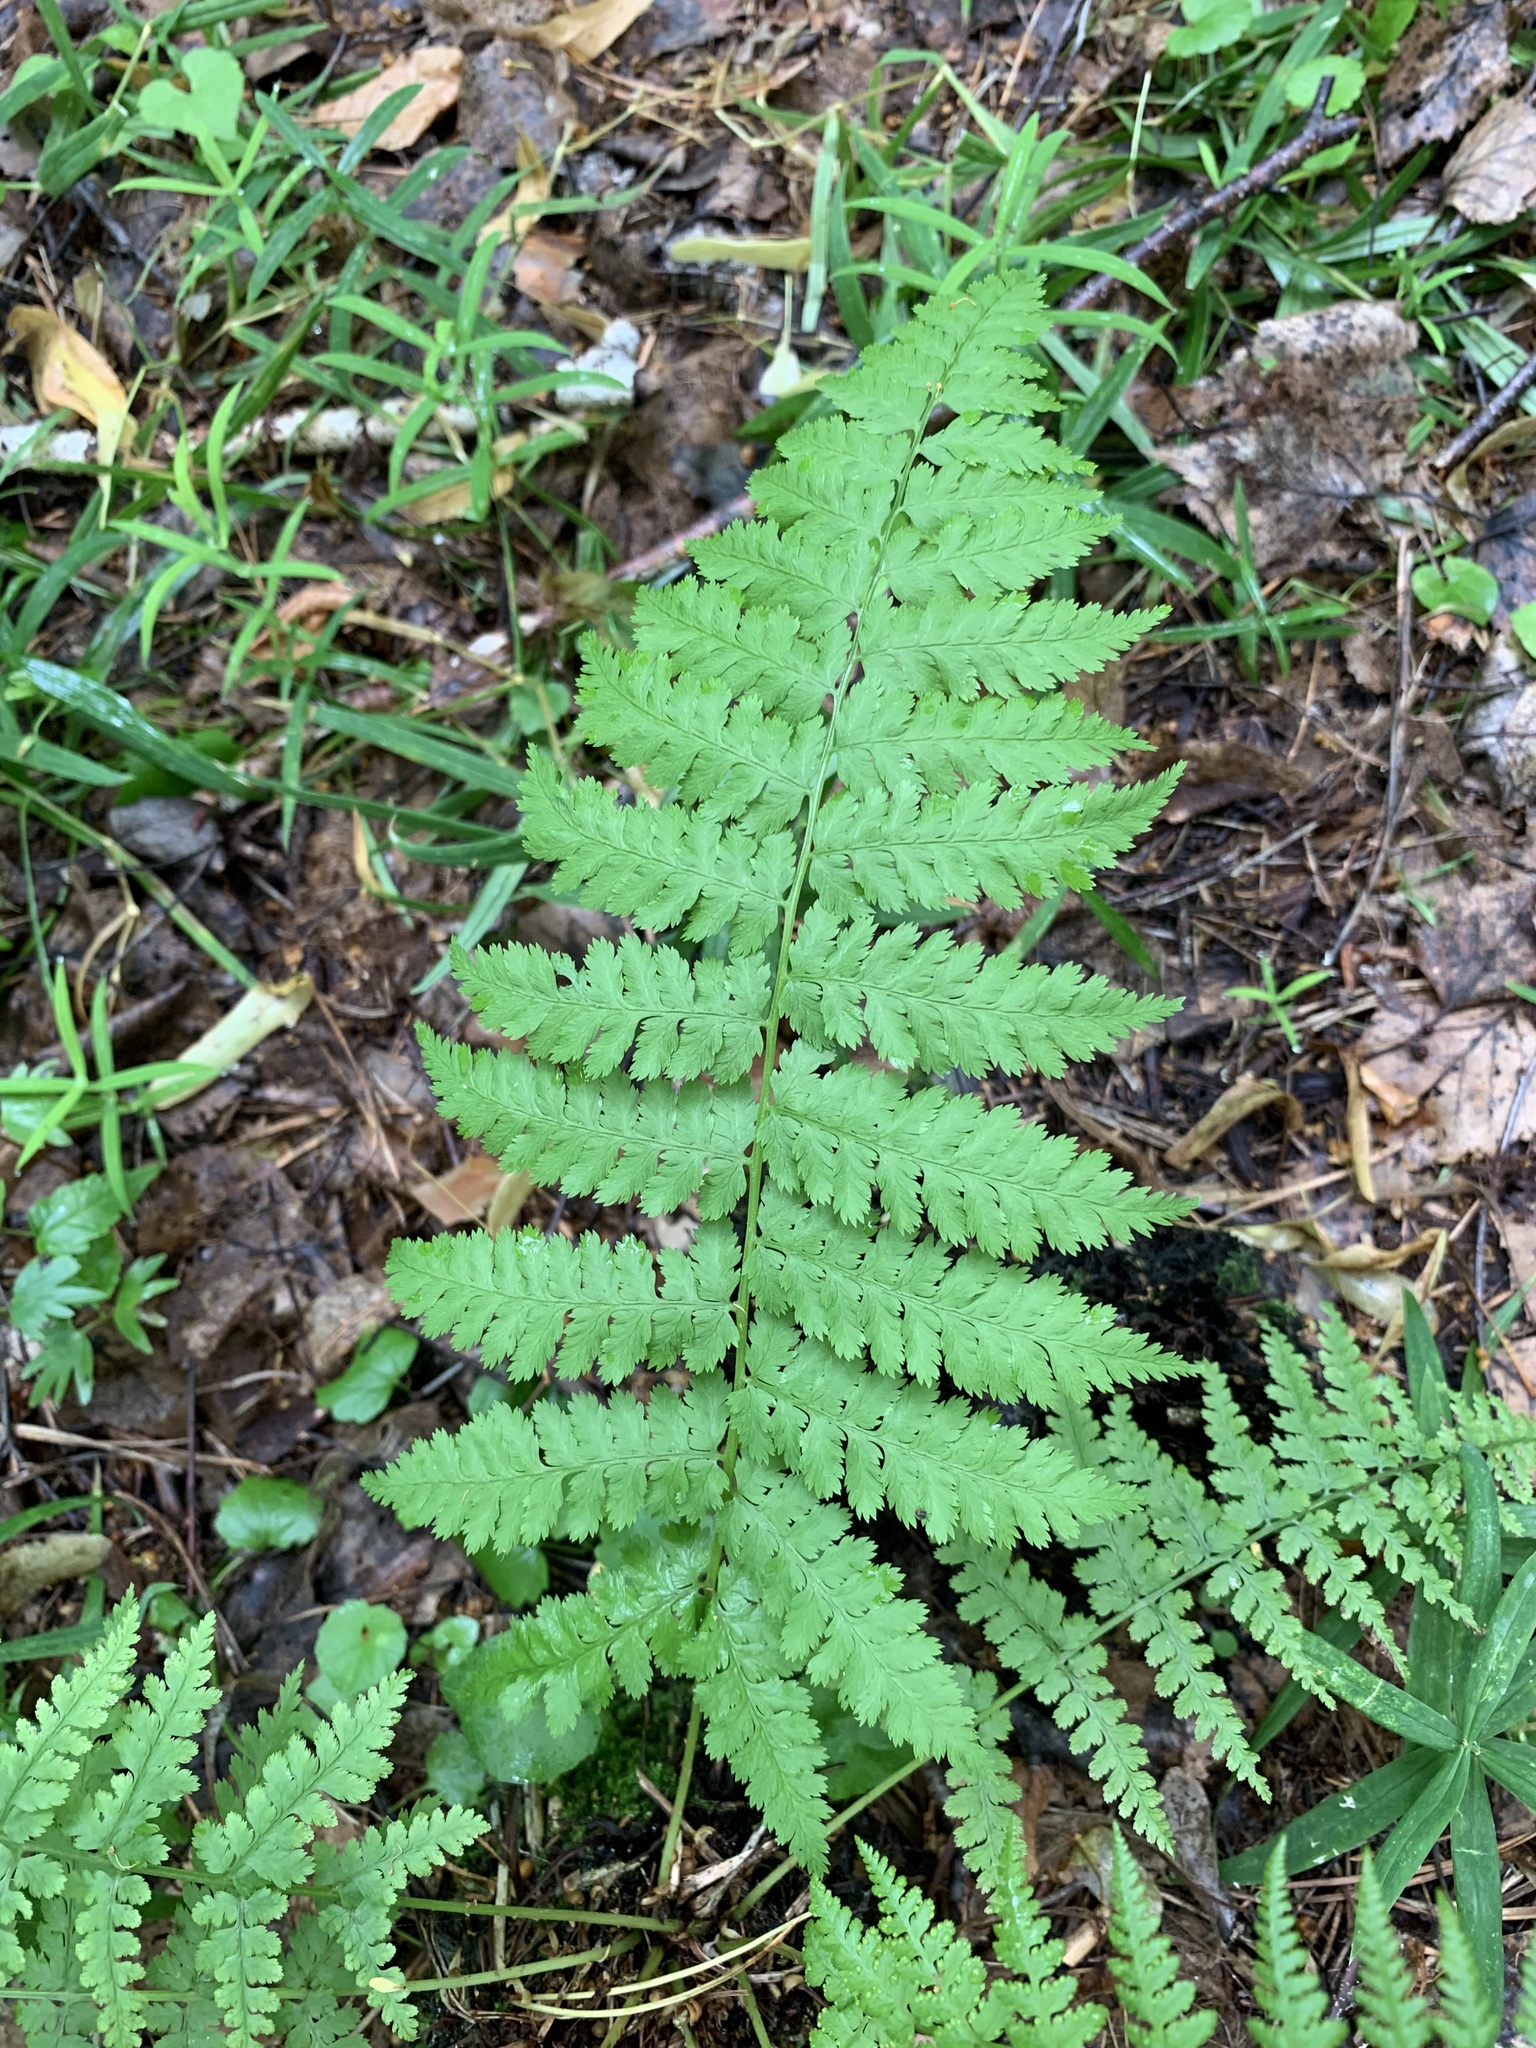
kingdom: Plantae
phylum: Tracheophyta
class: Polypodiopsida
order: Polypodiales
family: Dryopteridaceae
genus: Dryopteris
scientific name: Dryopteris carthusiana
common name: Narrow buckler-fern
